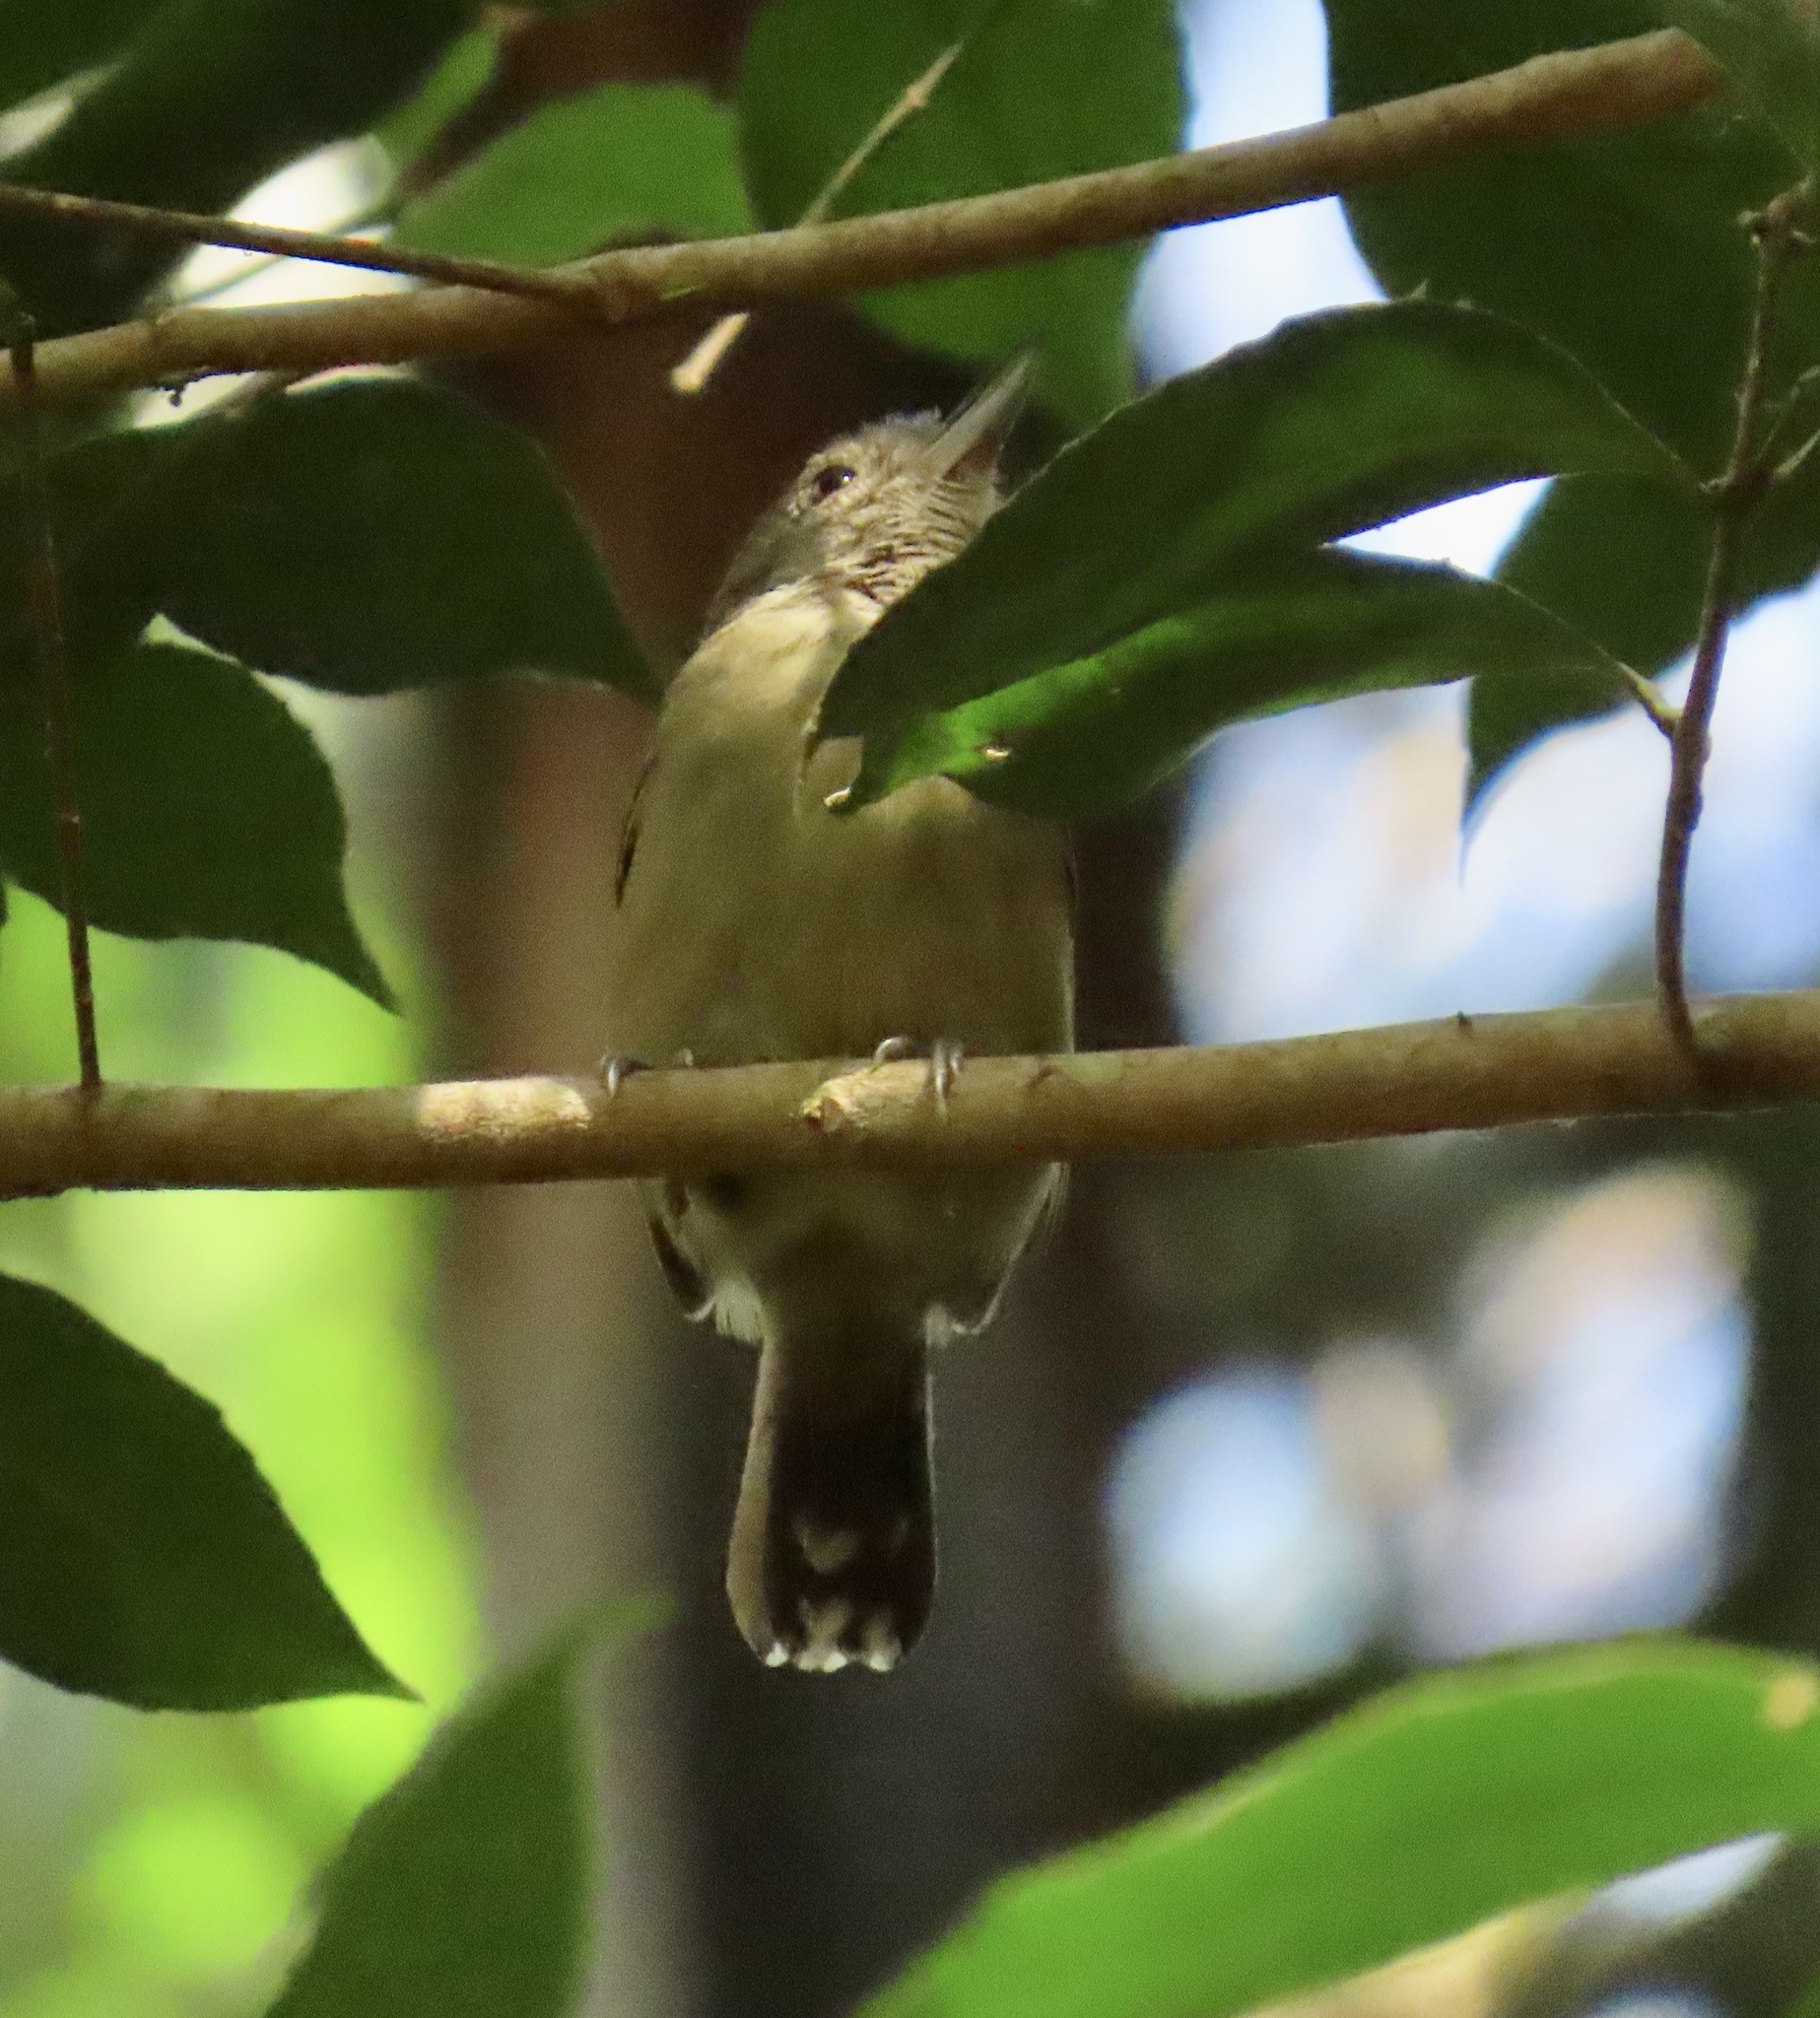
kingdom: Animalia
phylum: Chordata
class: Aves
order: Passeriformes
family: Thamnophilidae
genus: Thamnophilus
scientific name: Thamnophilus atrinucha
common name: Black-crowned antshrike
